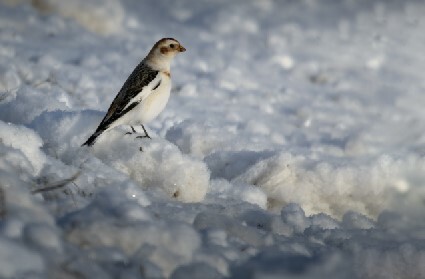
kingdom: Animalia
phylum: Chordata
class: Aves
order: Passeriformes
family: Calcariidae
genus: Plectrophenax
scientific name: Plectrophenax nivalis
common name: Snow bunting
